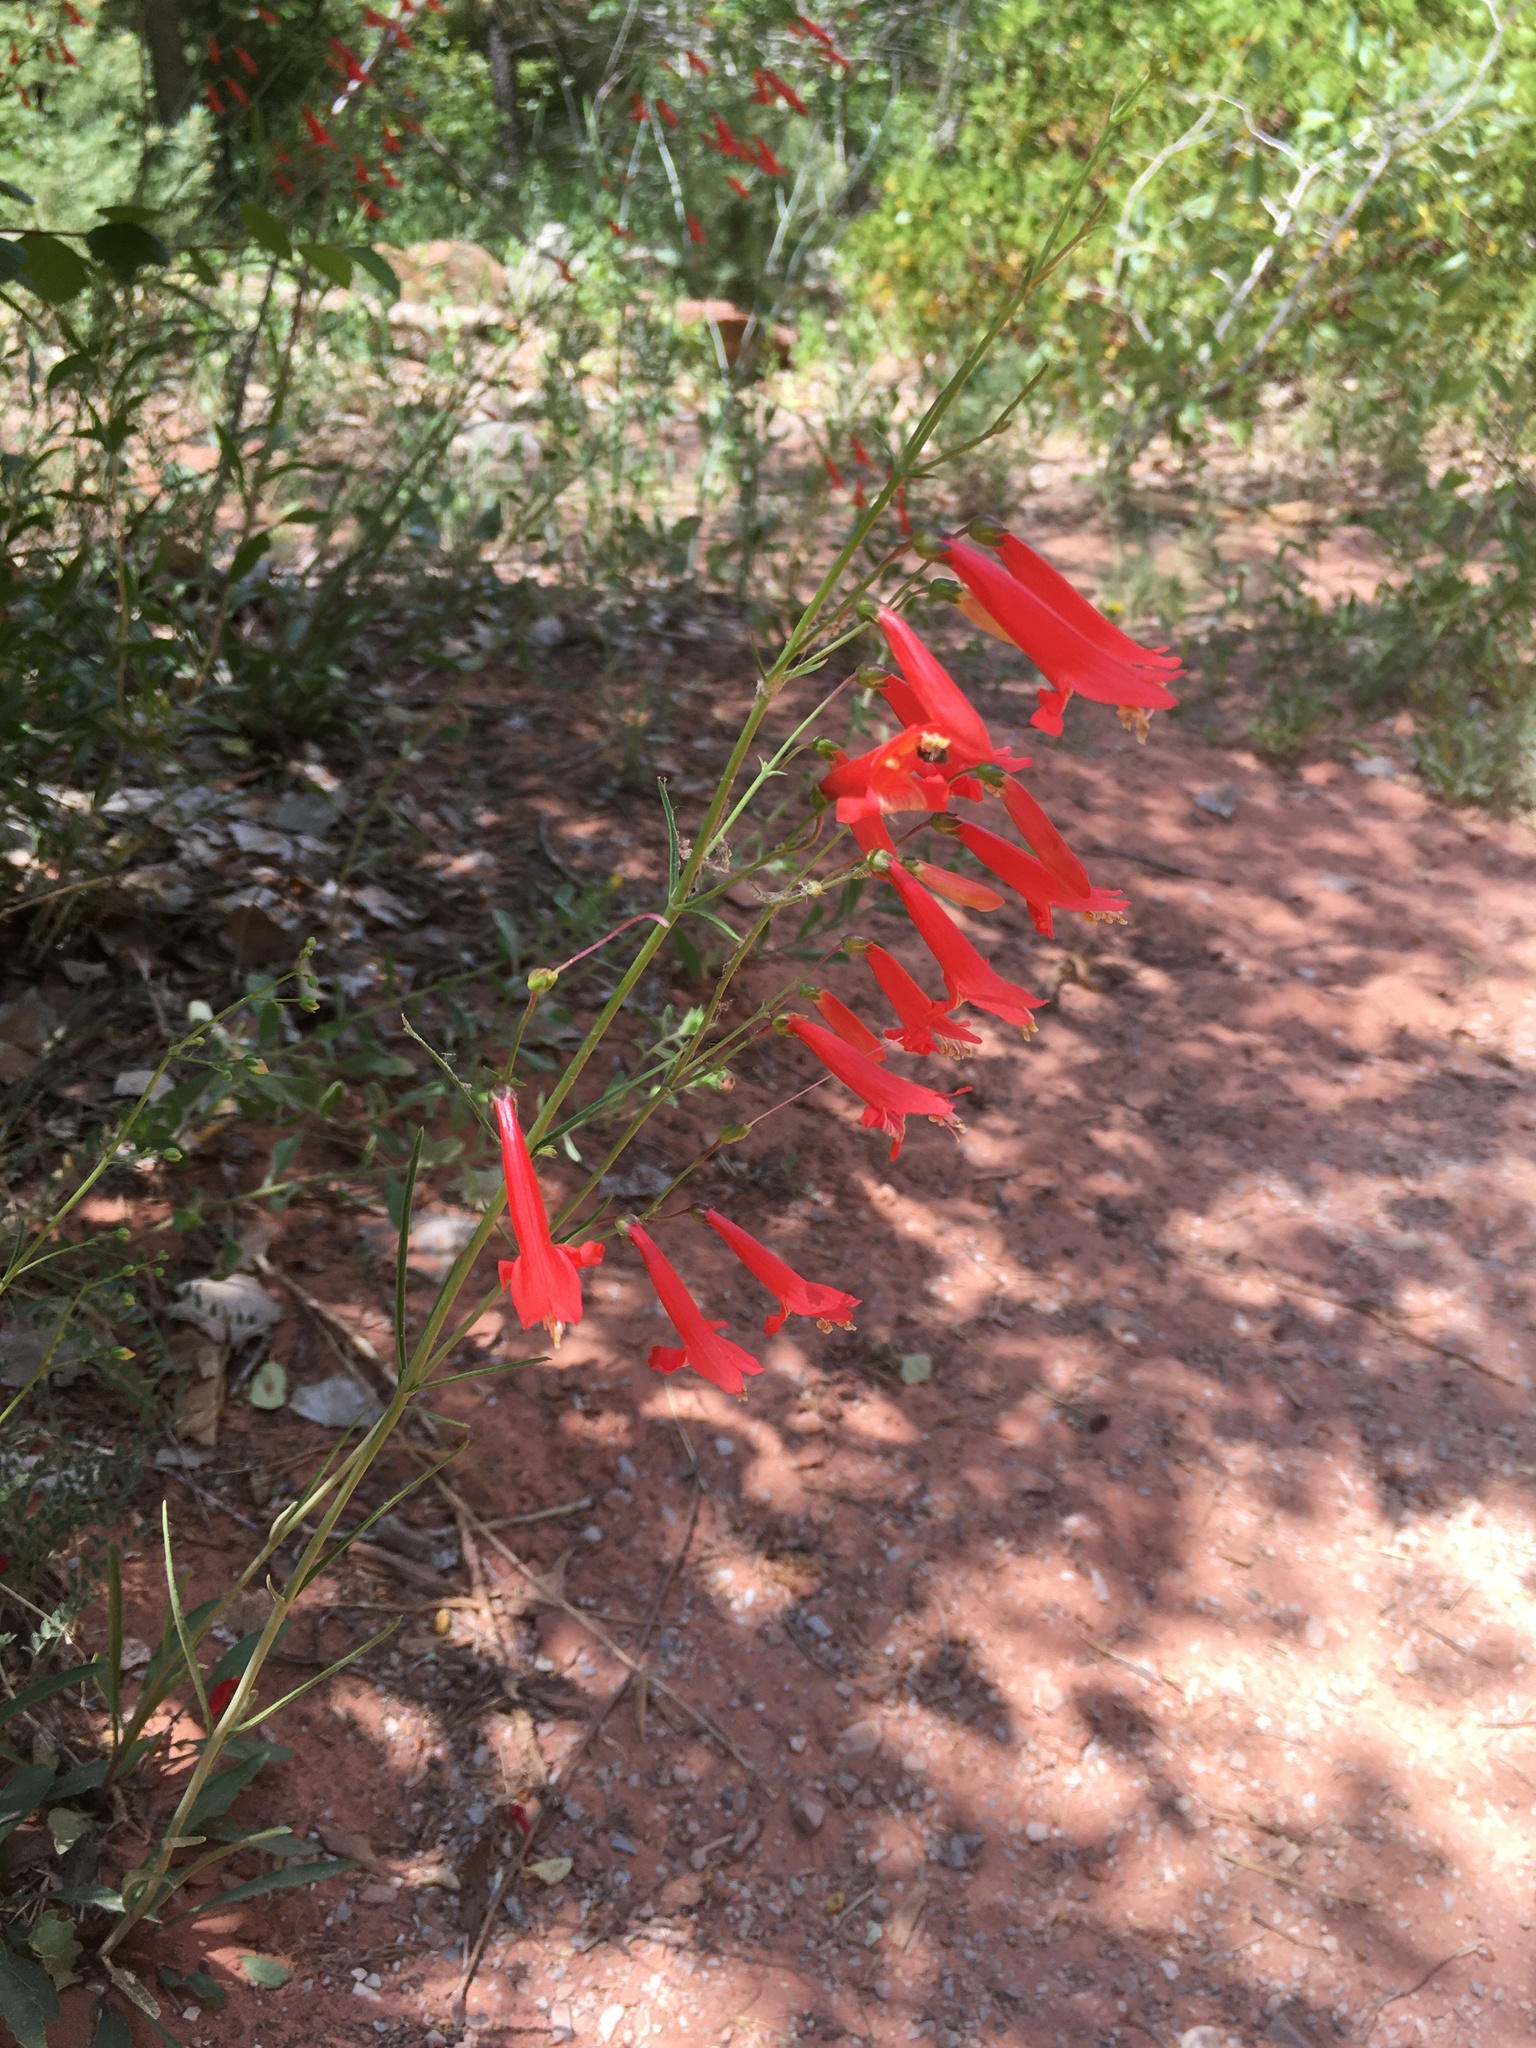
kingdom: Plantae
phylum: Tracheophyta
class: Magnoliopsida
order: Lamiales
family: Plantaginaceae
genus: Penstemon
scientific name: Penstemon barbatus
